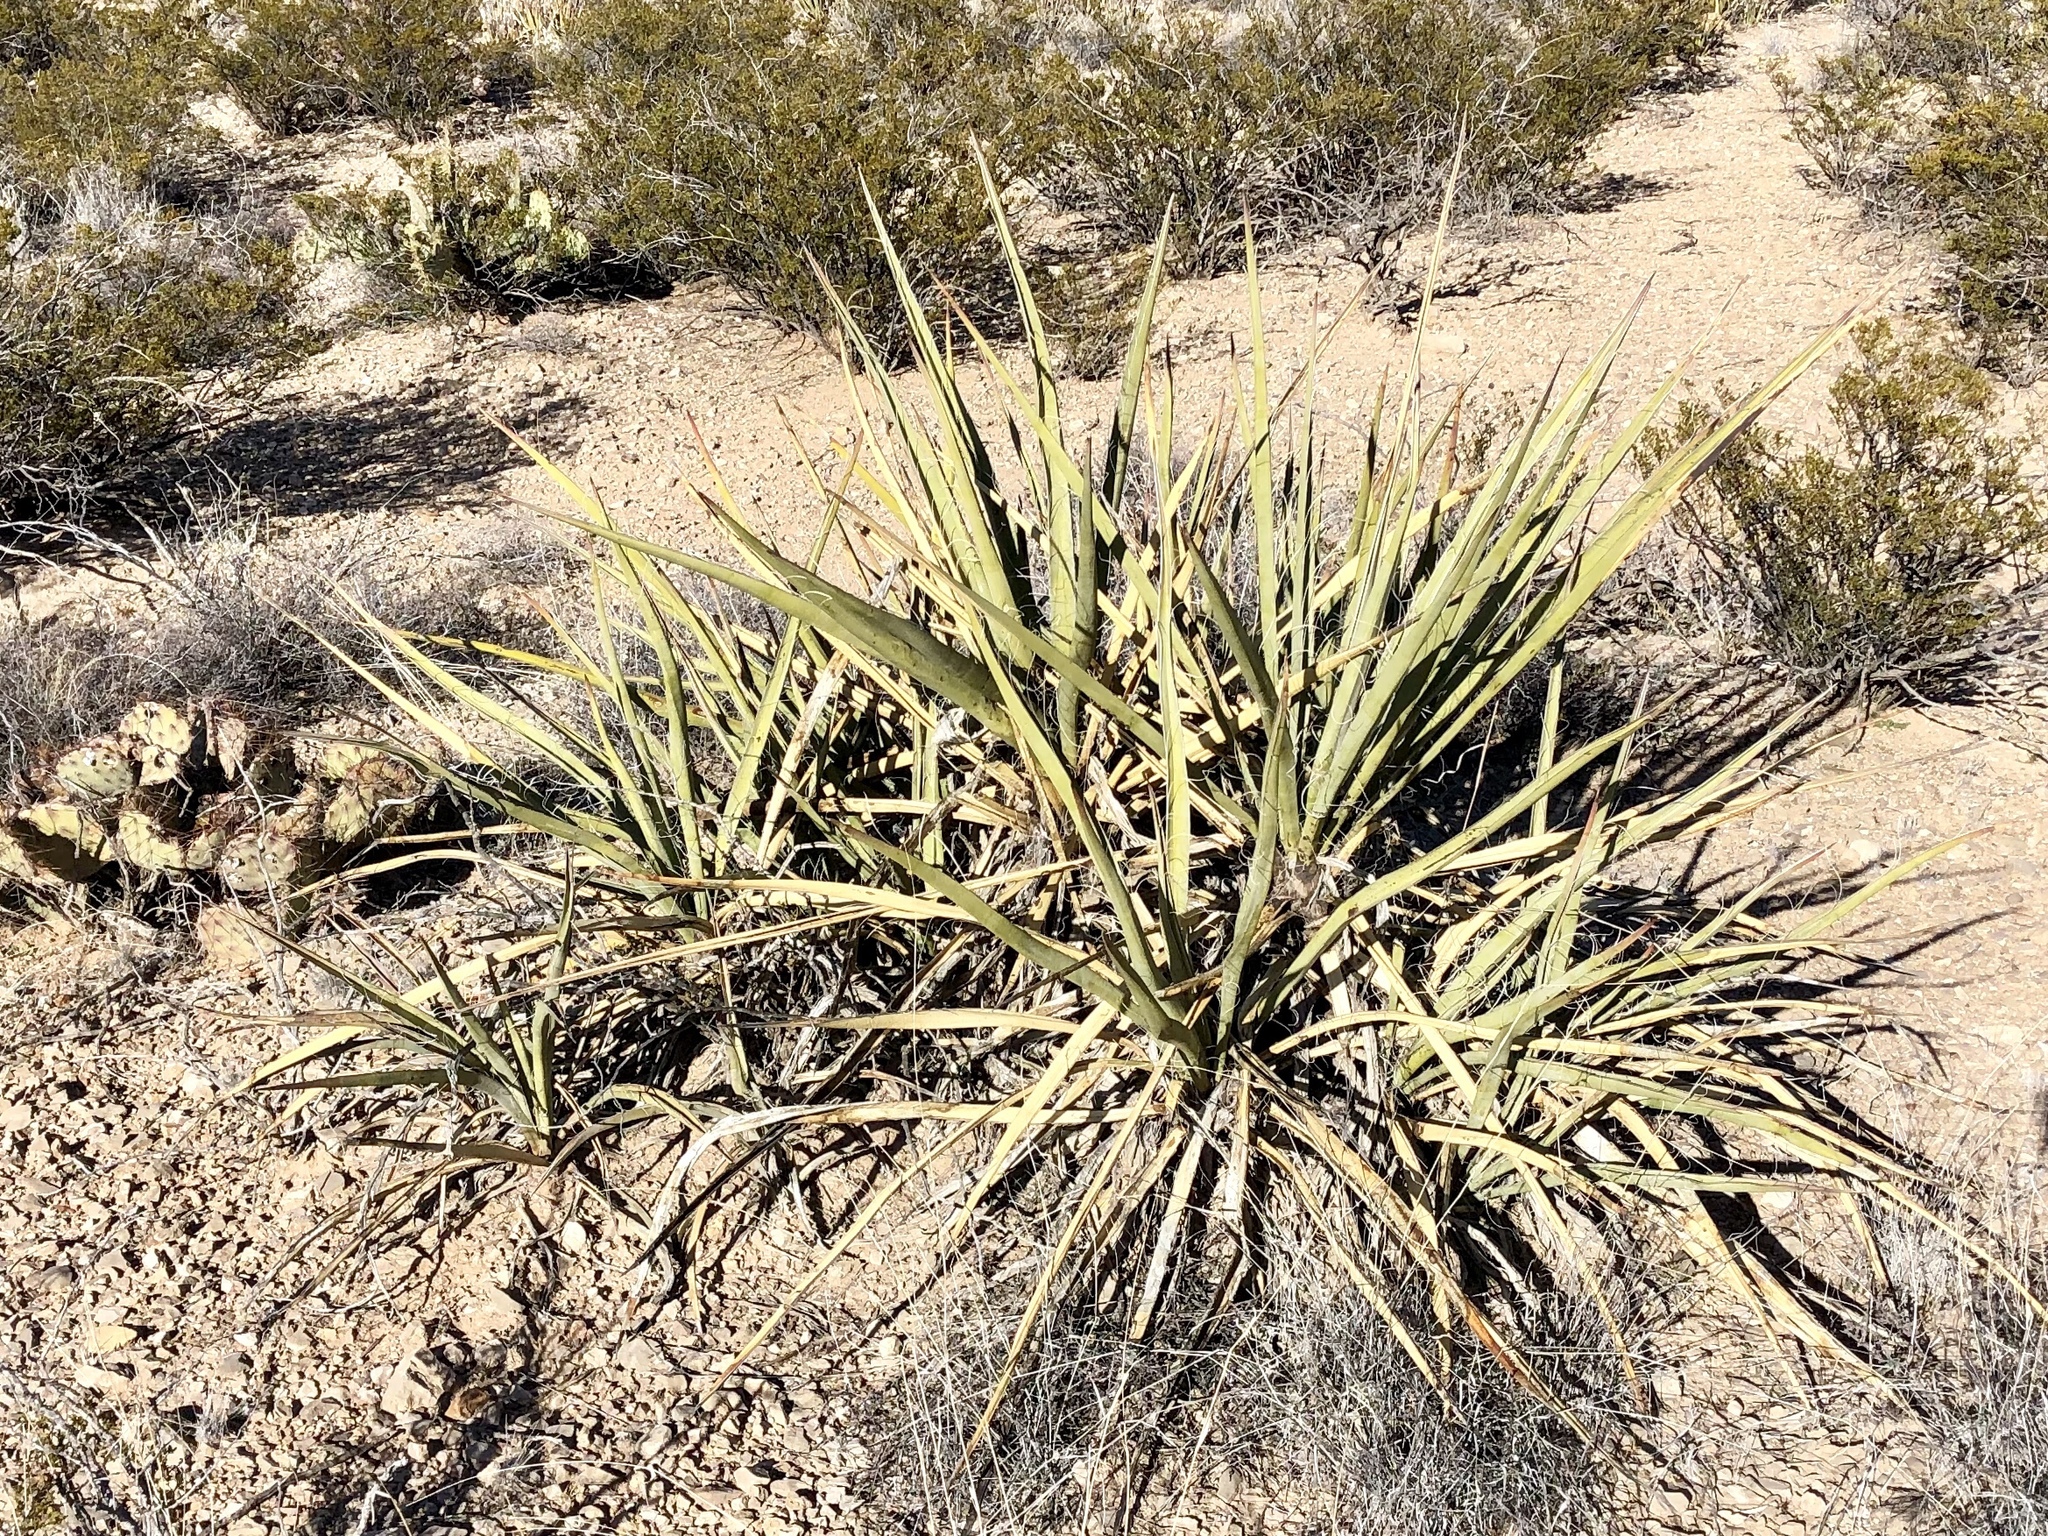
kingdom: Plantae
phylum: Tracheophyta
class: Liliopsida
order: Asparagales
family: Asparagaceae
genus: Yucca
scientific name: Yucca baccata
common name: Banana yucca
